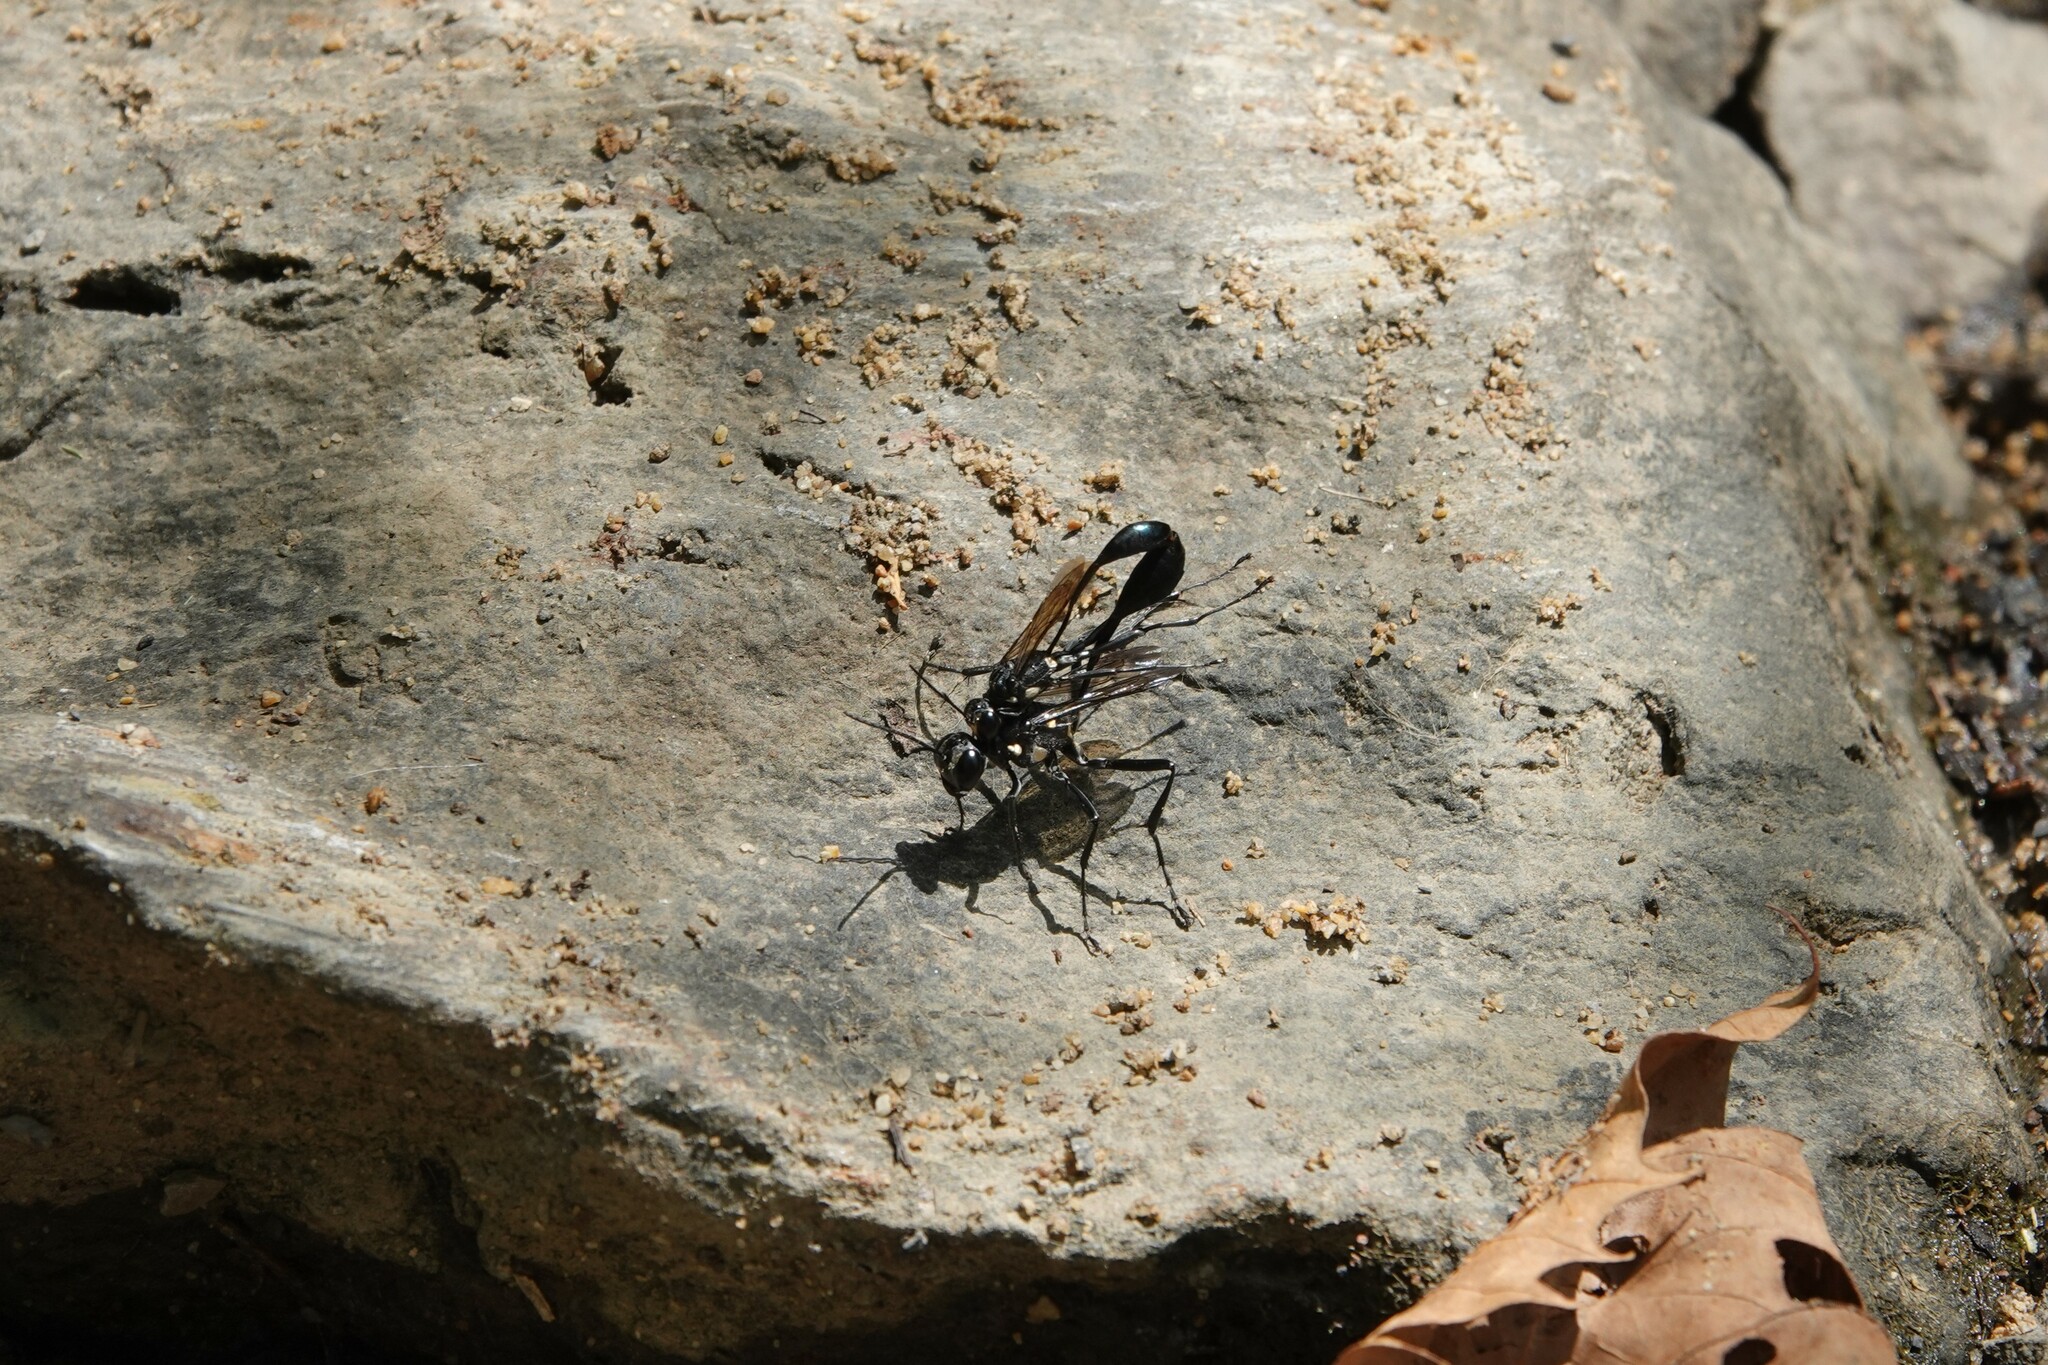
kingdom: Animalia
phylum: Arthropoda
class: Insecta
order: Hymenoptera
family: Sphecidae
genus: Eremnophila
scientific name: Eremnophila aureonotata
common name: Gold-marked thread-waisted wasp
